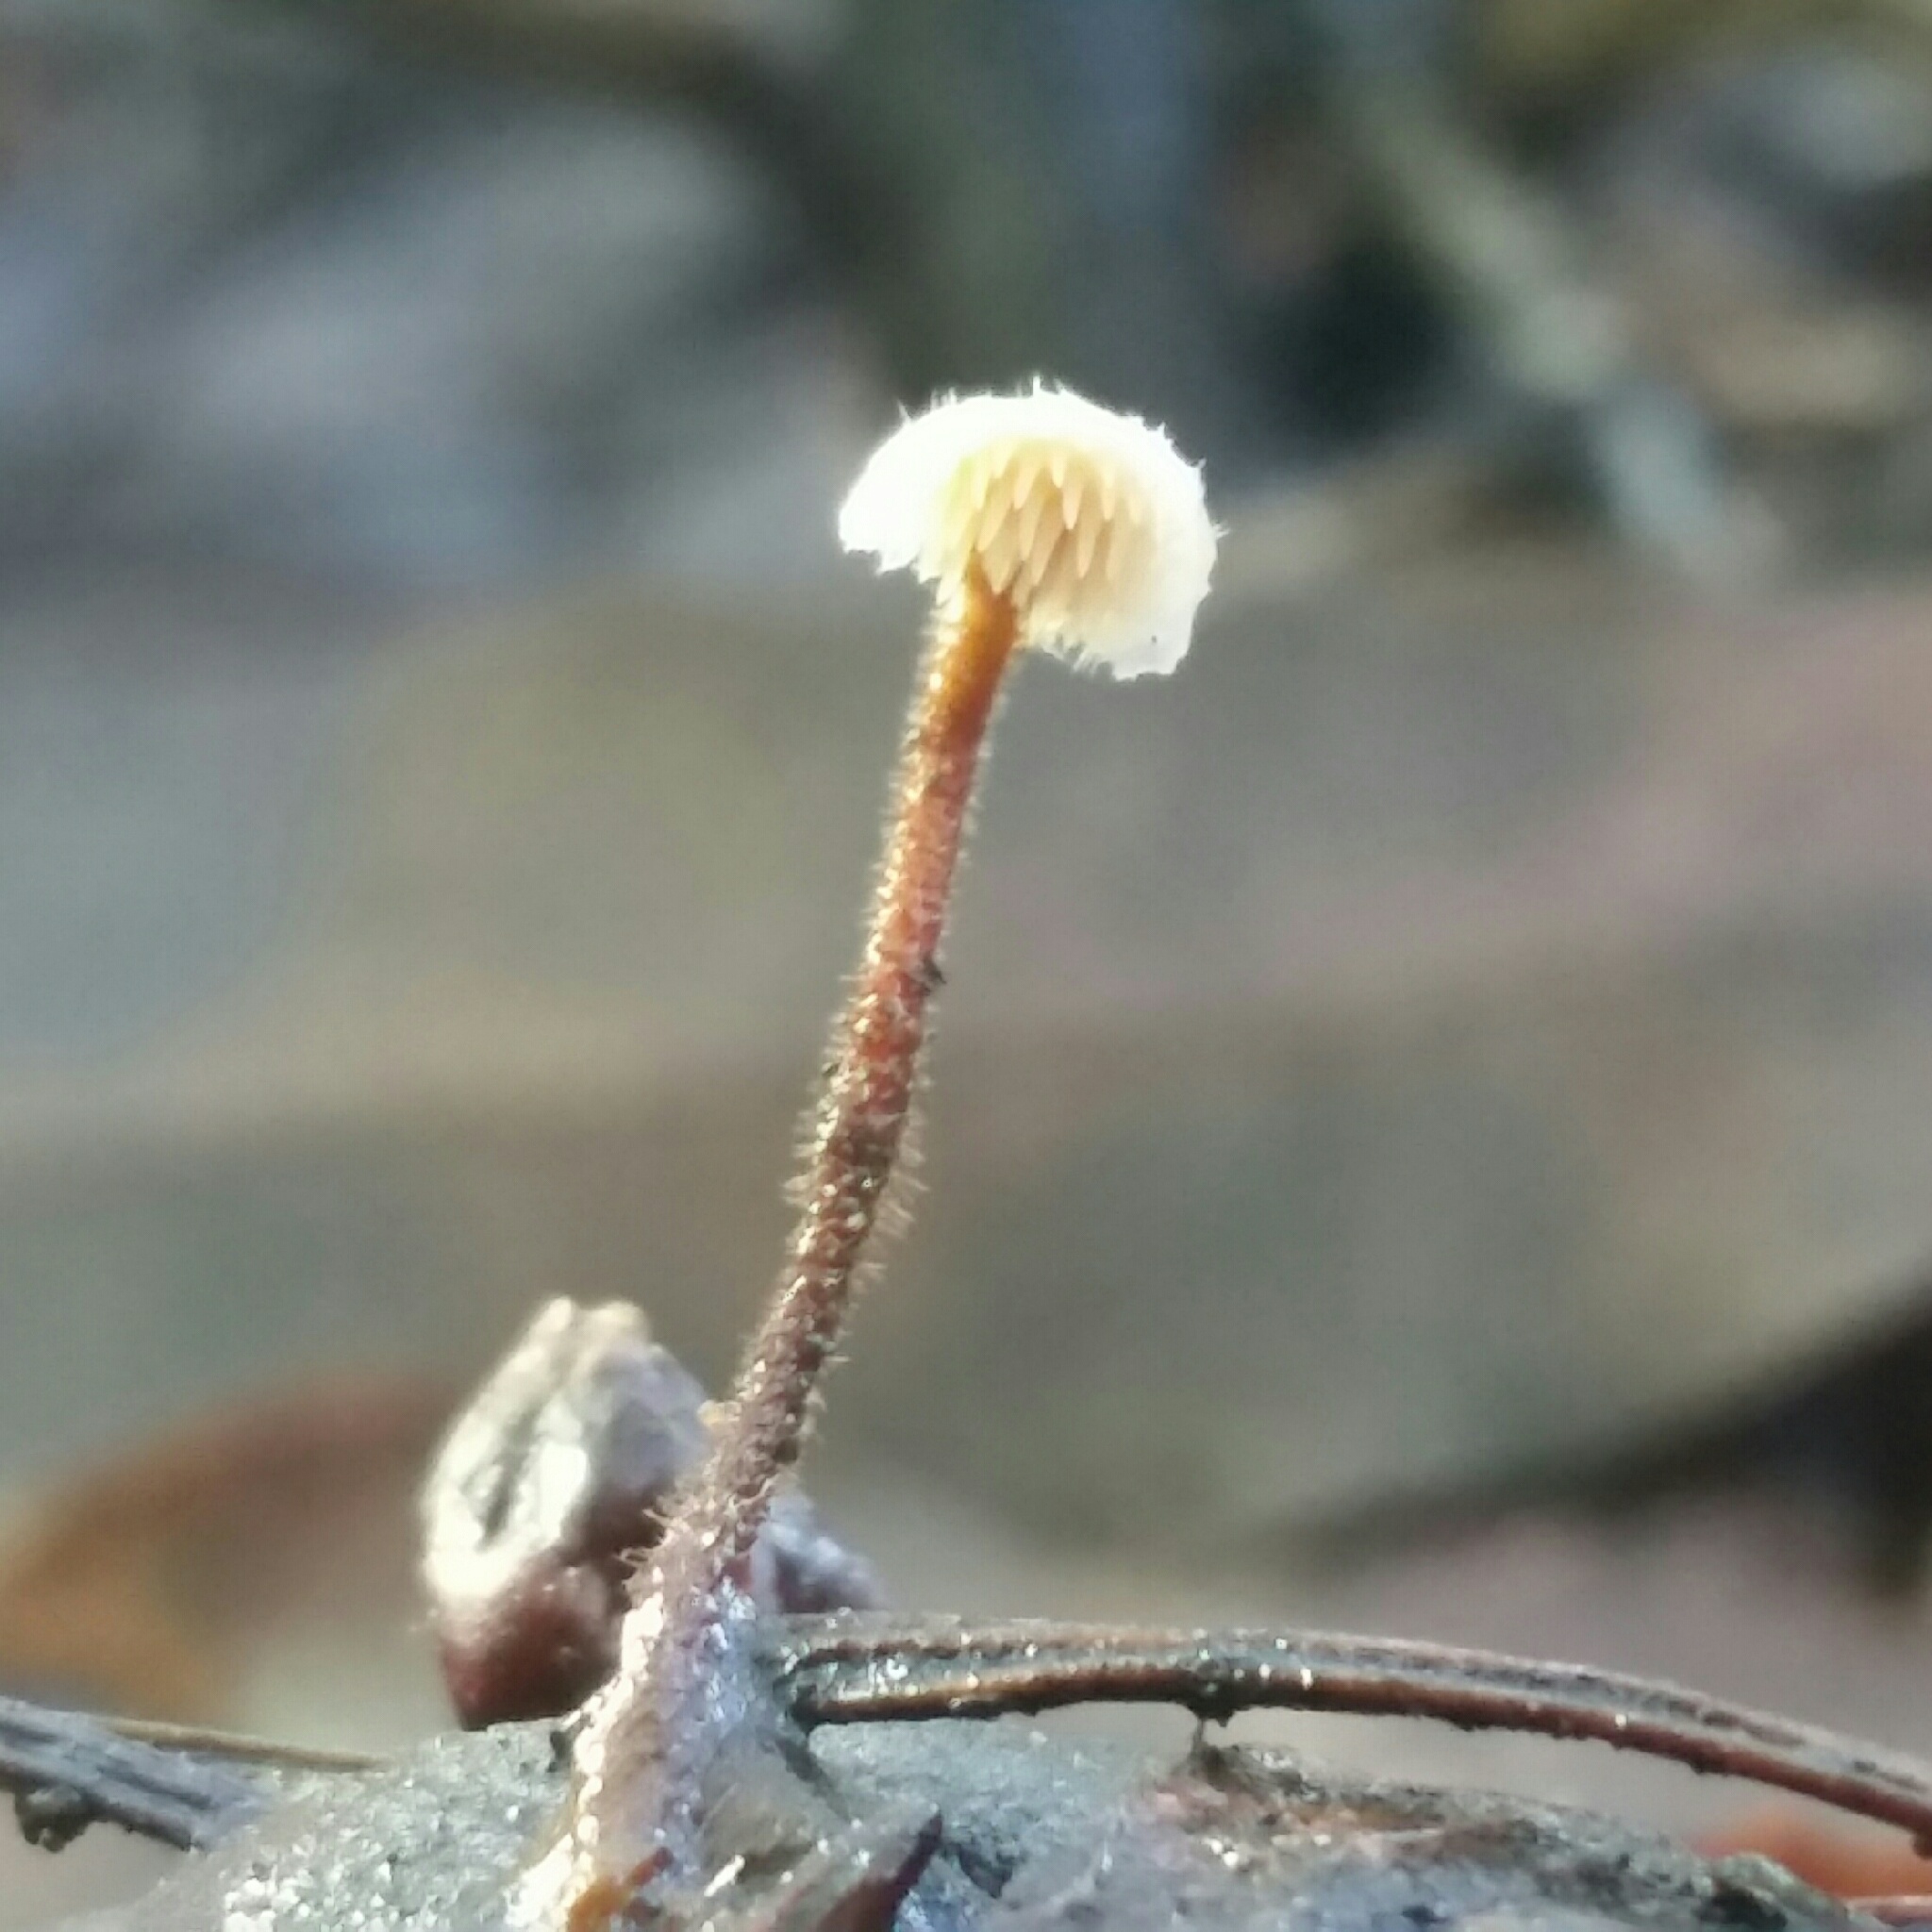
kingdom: Fungi
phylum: Basidiomycota
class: Agaricomycetes
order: Russulales
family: Auriscalpiaceae
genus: Auriscalpium
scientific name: Auriscalpium vulgare
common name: Earpick fungus
